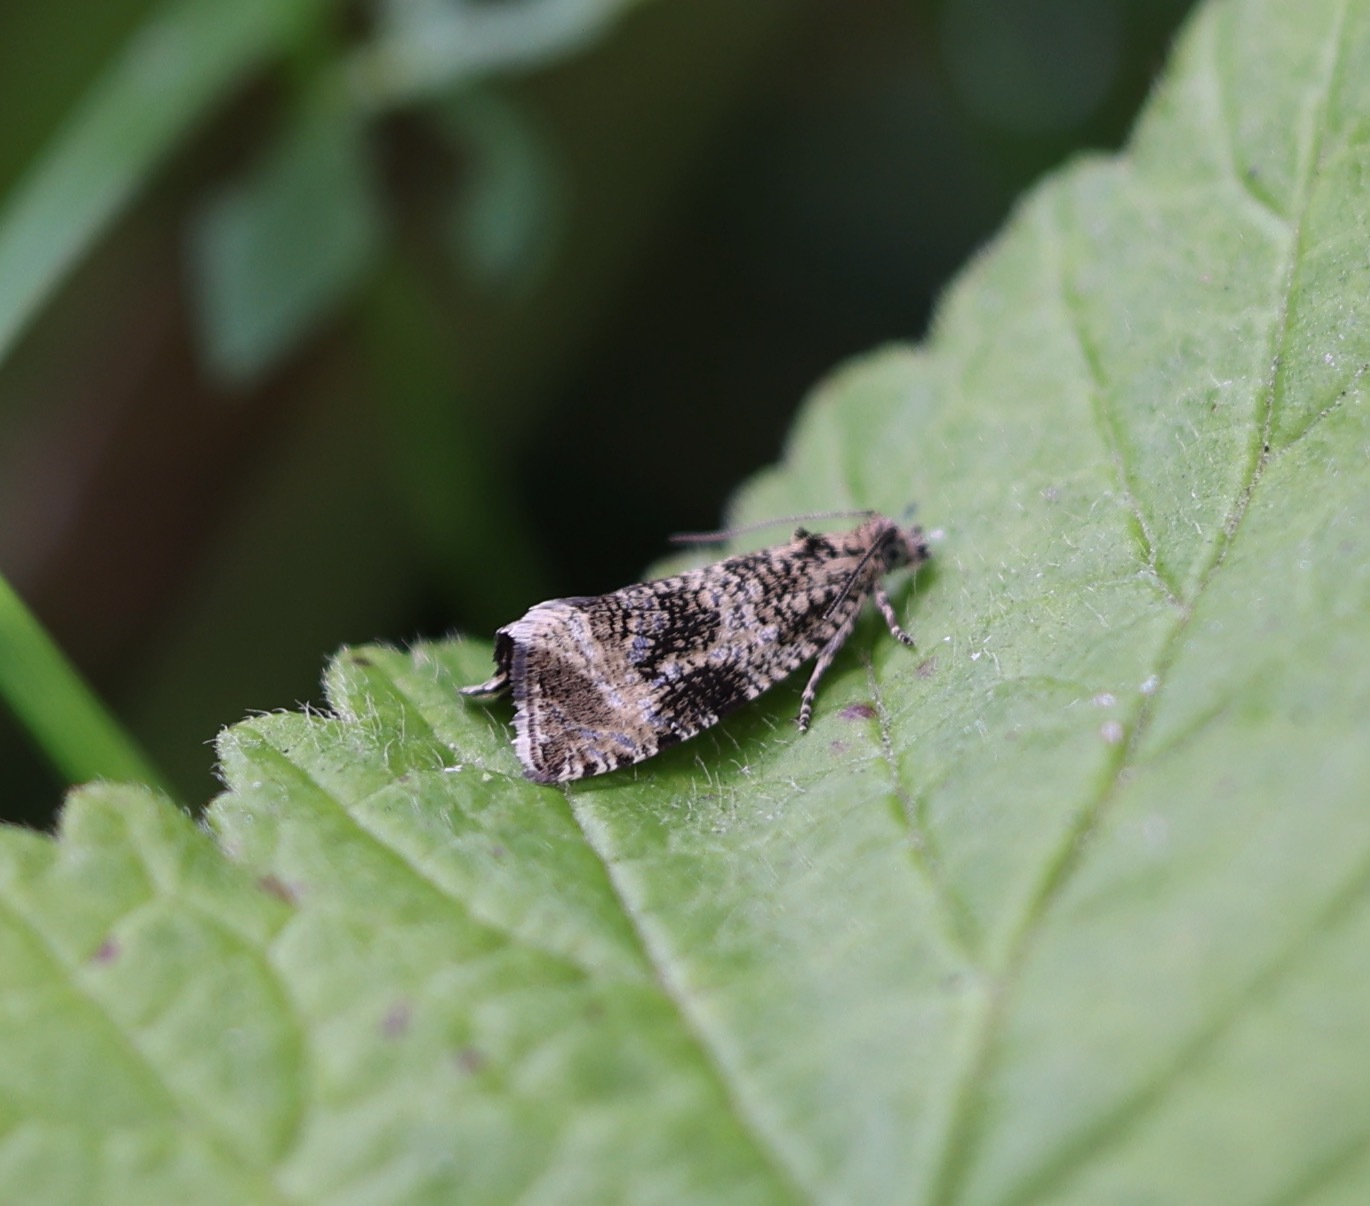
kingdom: Animalia
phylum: Arthropoda
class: Insecta
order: Lepidoptera
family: Tortricidae
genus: Syricoris
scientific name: Syricoris lacunana
